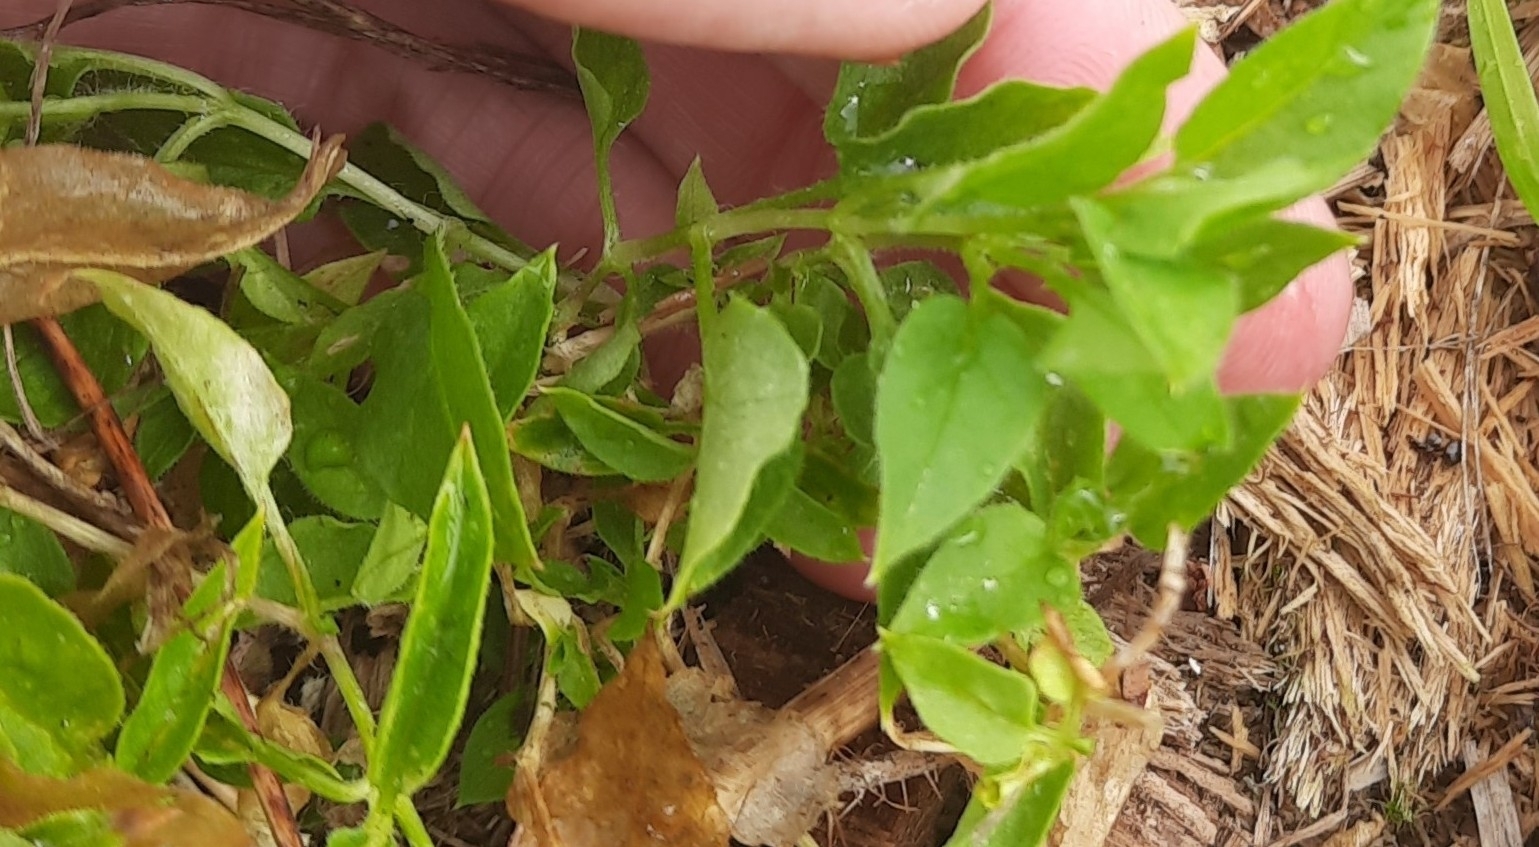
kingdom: Plantae
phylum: Tracheophyta
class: Magnoliopsida
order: Caryophyllales
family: Caryophyllaceae
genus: Stellaria
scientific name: Stellaria bungeana
